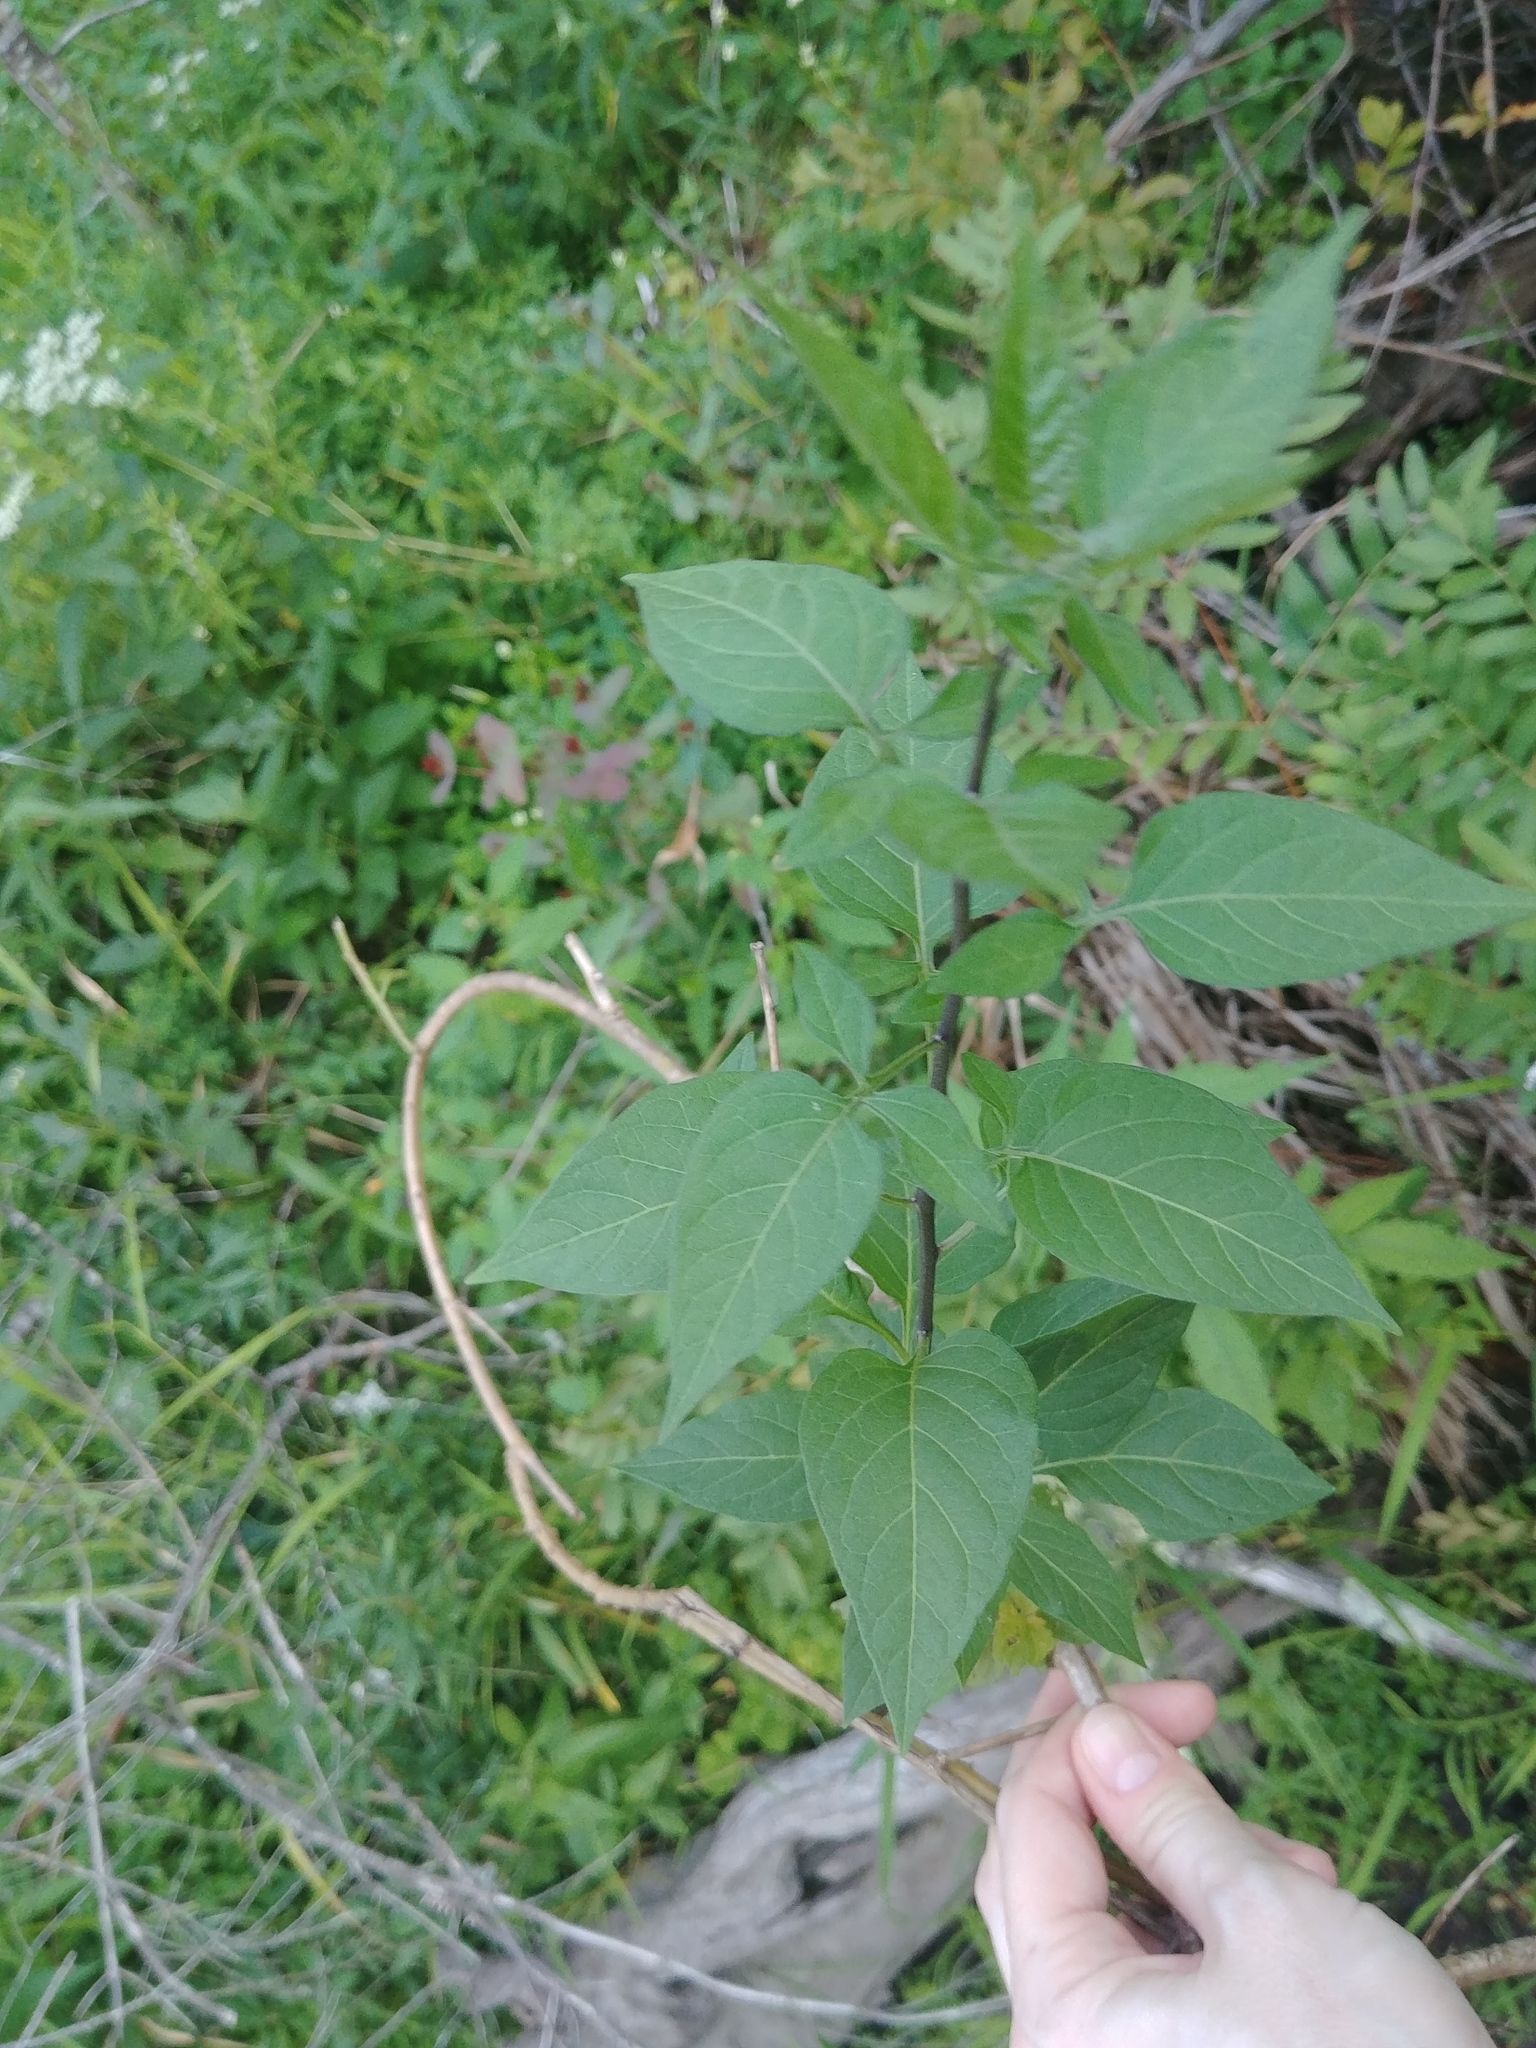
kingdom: Plantae
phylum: Tracheophyta
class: Magnoliopsida
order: Solanales
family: Solanaceae
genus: Solanum
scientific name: Solanum dulcamara
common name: Climbing nightshade
